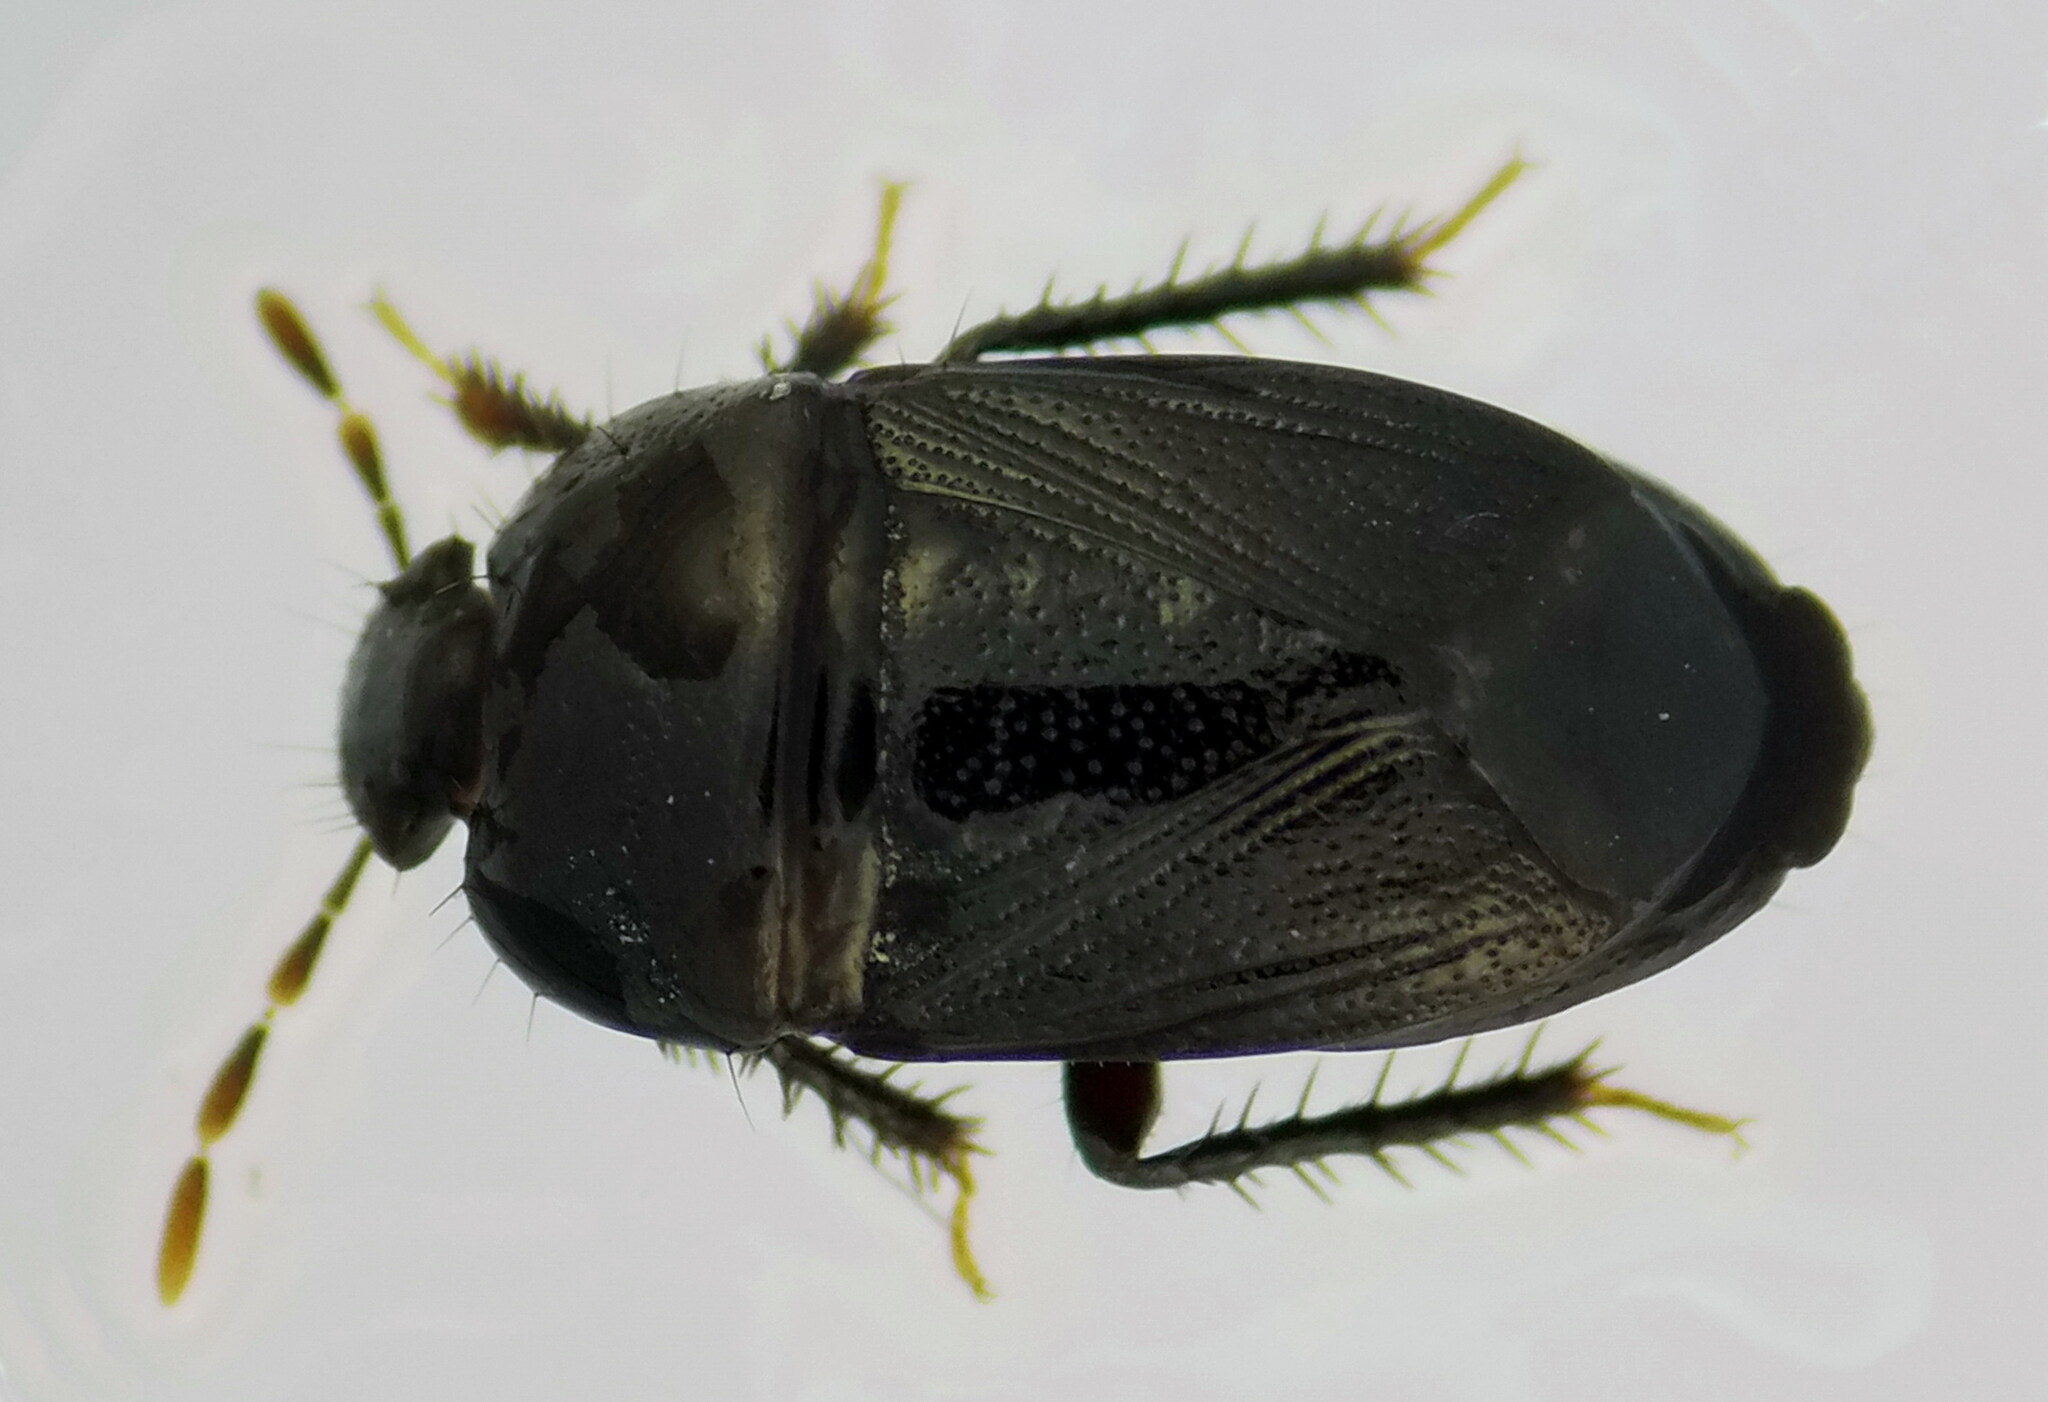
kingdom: Animalia
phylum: Arthropoda
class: Insecta
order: Hemiptera
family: Cydnidae
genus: Geotomus
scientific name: Geotomus elongatus
